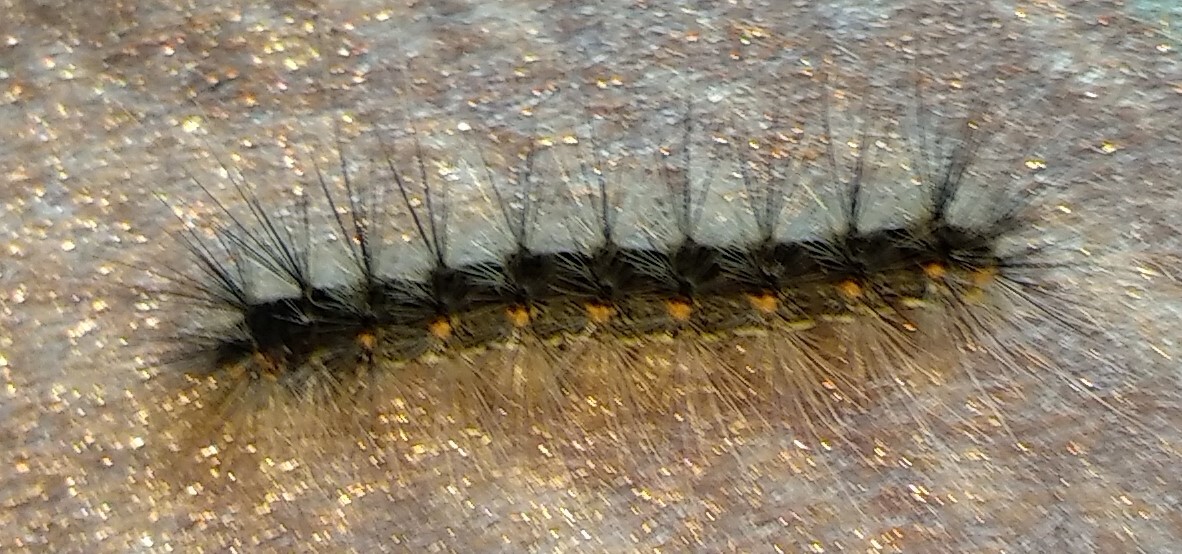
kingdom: Animalia
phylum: Arthropoda
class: Insecta
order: Lepidoptera
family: Erebidae
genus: Hyphantria
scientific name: Hyphantria cunea
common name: American white moth
